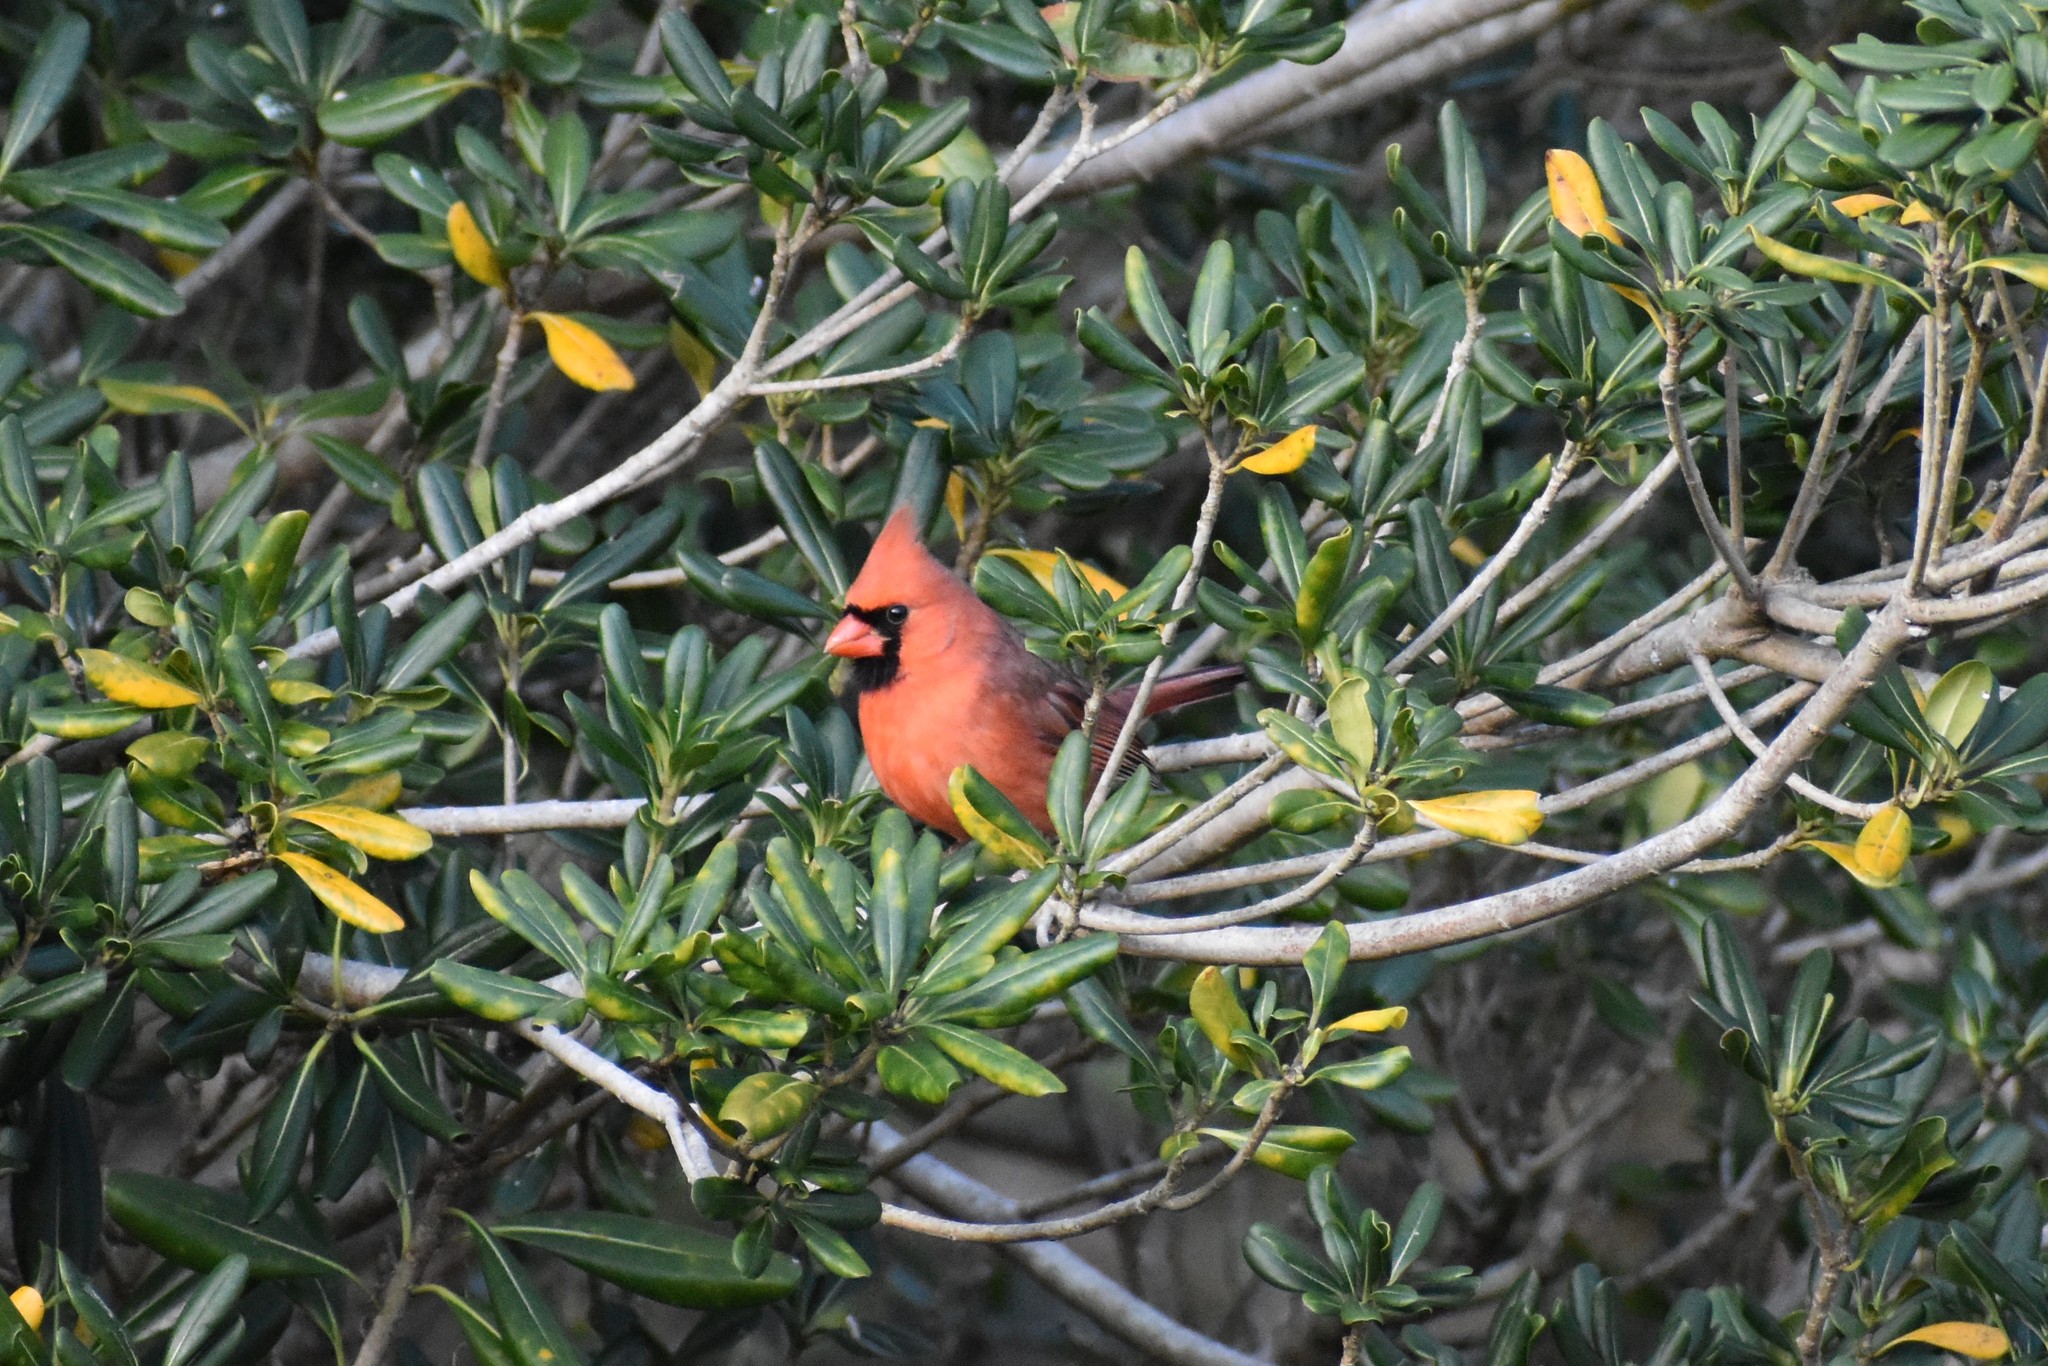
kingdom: Animalia
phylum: Chordata
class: Aves
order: Passeriformes
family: Cardinalidae
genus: Cardinalis
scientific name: Cardinalis cardinalis
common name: Northern cardinal
